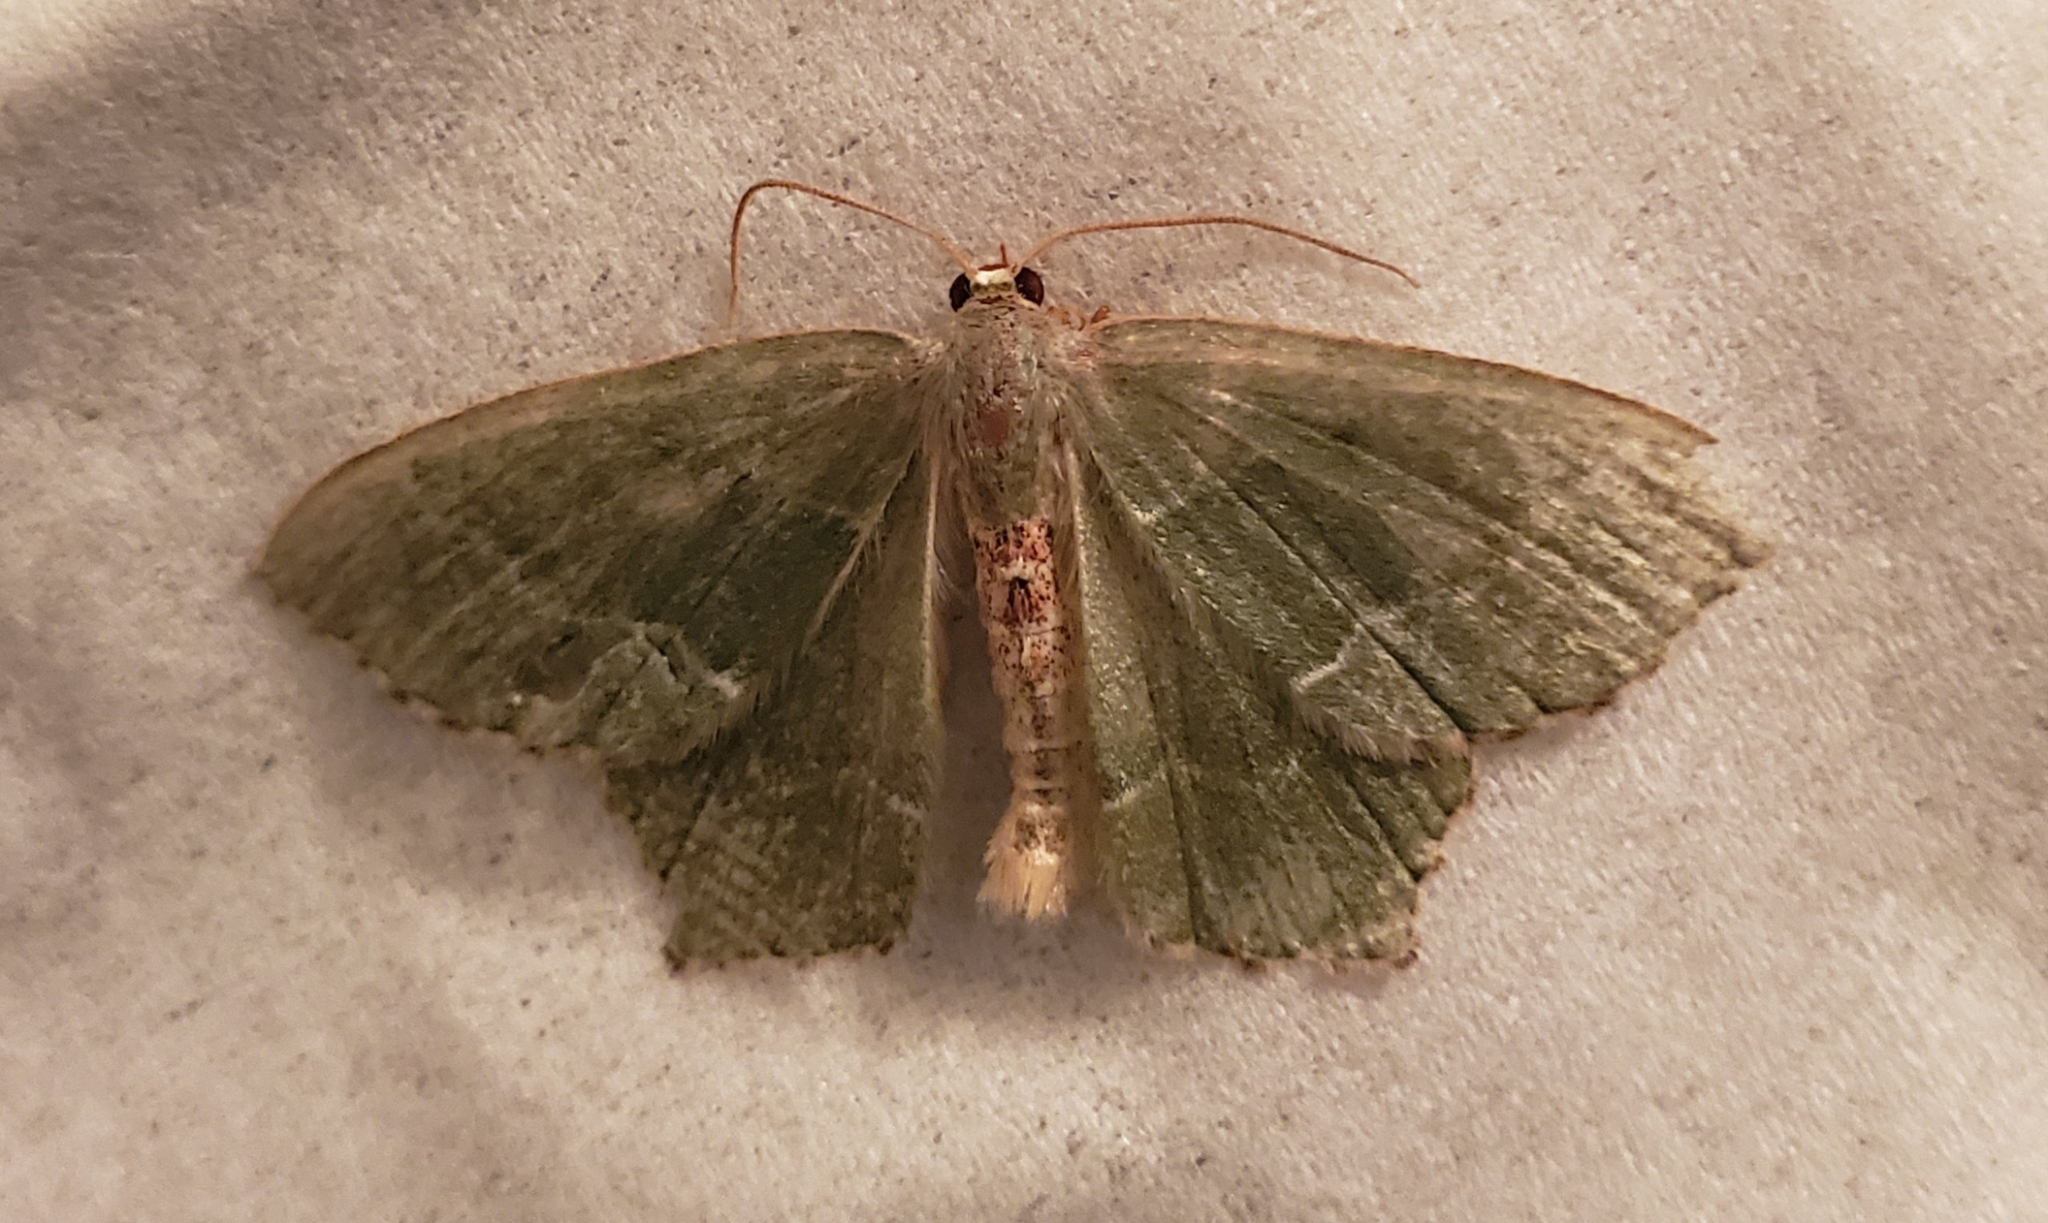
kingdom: Animalia
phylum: Arthropoda
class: Insecta
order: Lepidoptera
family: Geometridae
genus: Hemithea
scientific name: Hemithea aestivaria
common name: Common emerald
